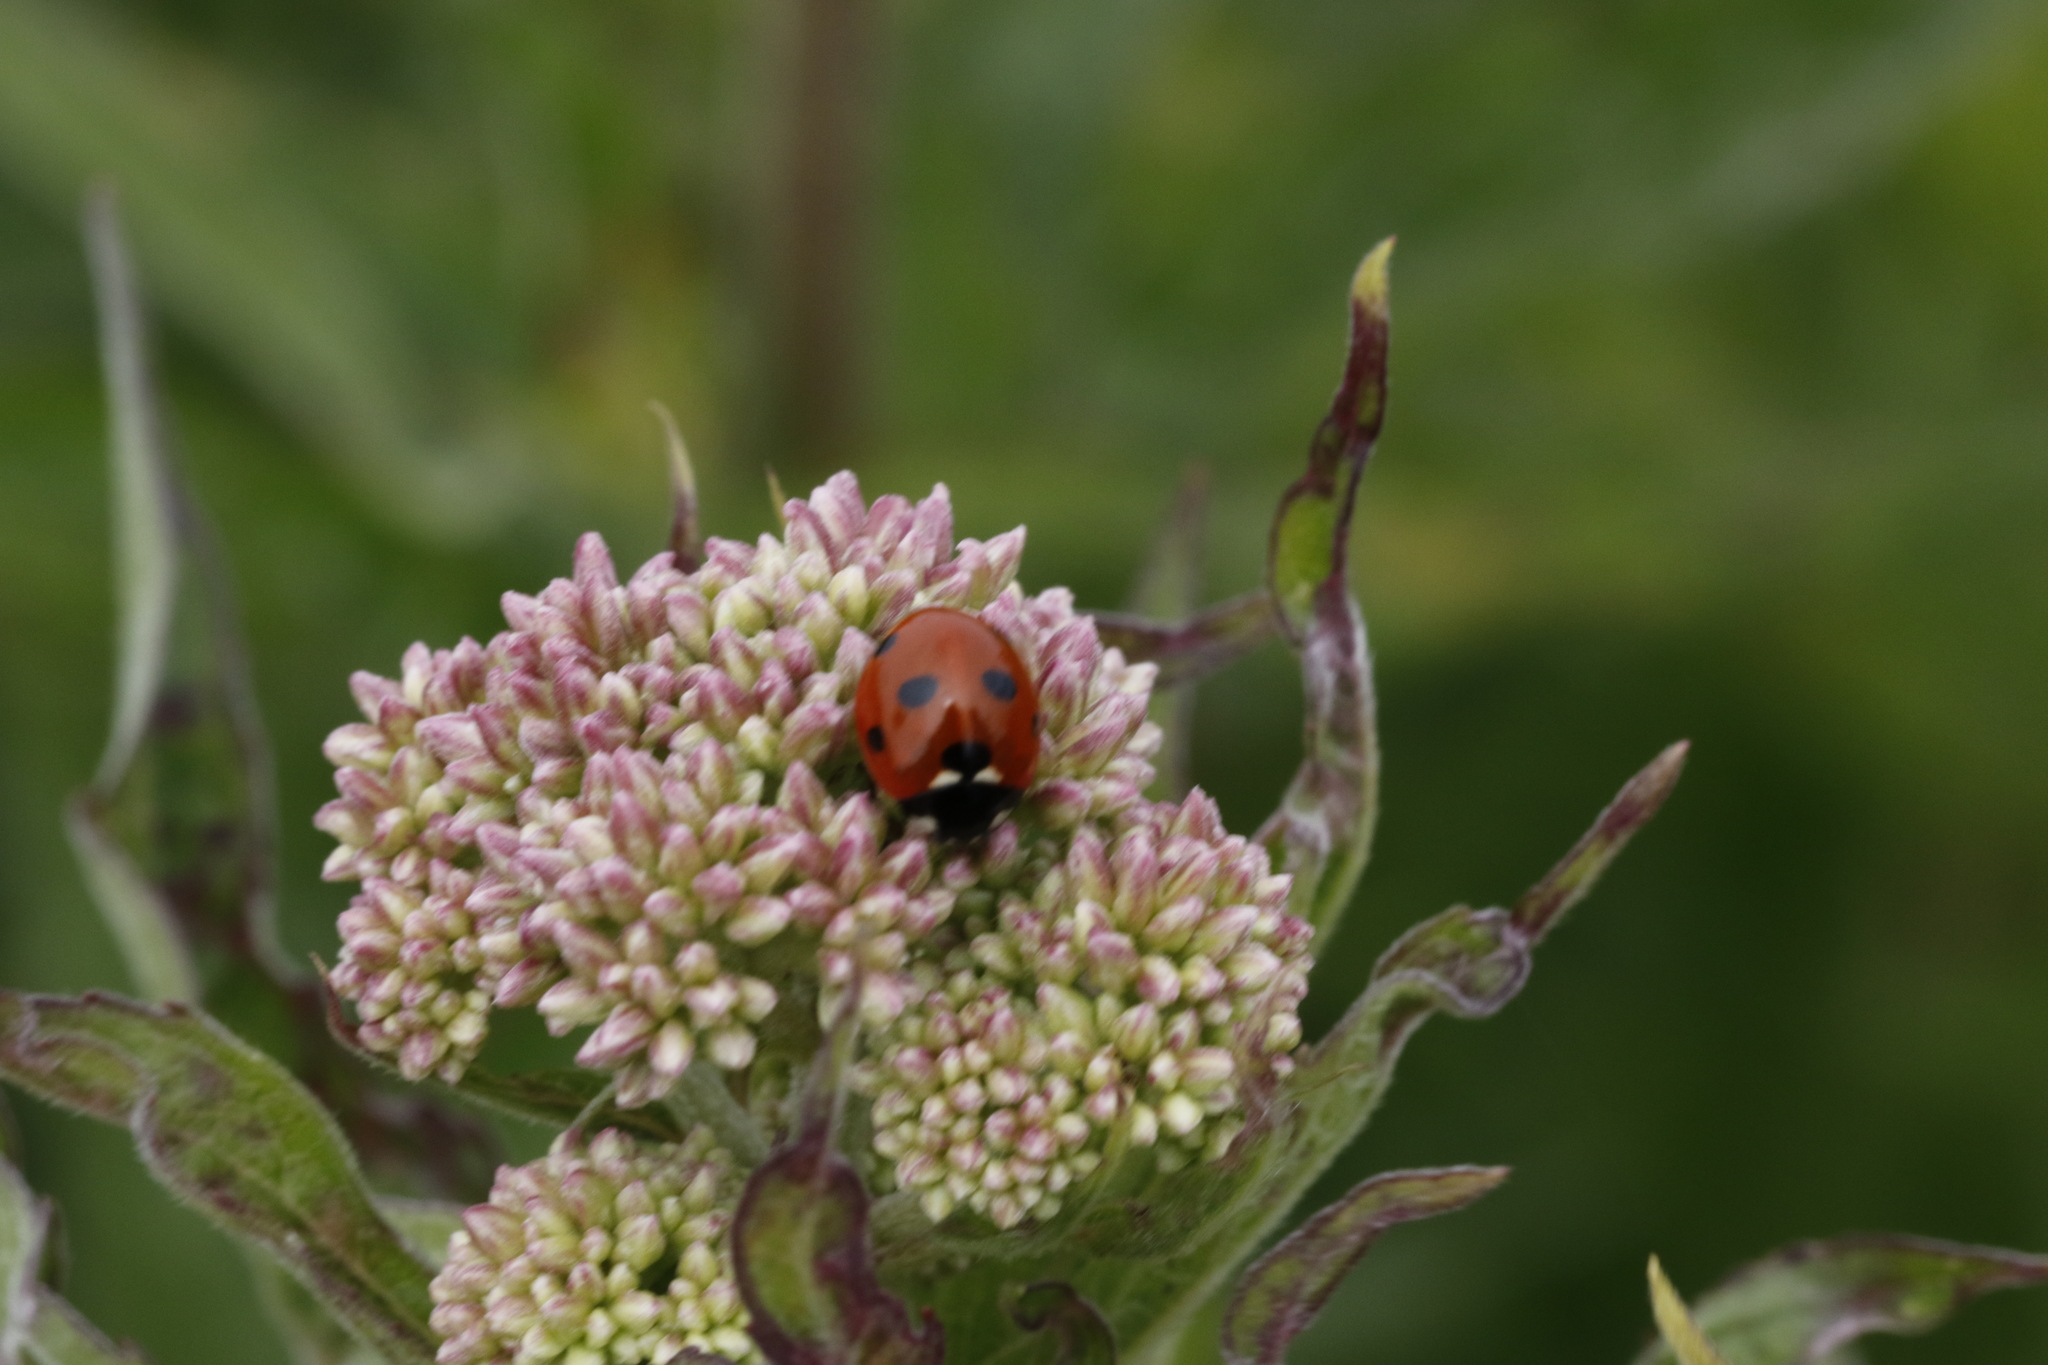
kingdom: Animalia
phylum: Arthropoda
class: Insecta
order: Coleoptera
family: Coccinellidae
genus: Coccinella
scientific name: Coccinella septempunctata
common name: Sevenspotted lady beetle
